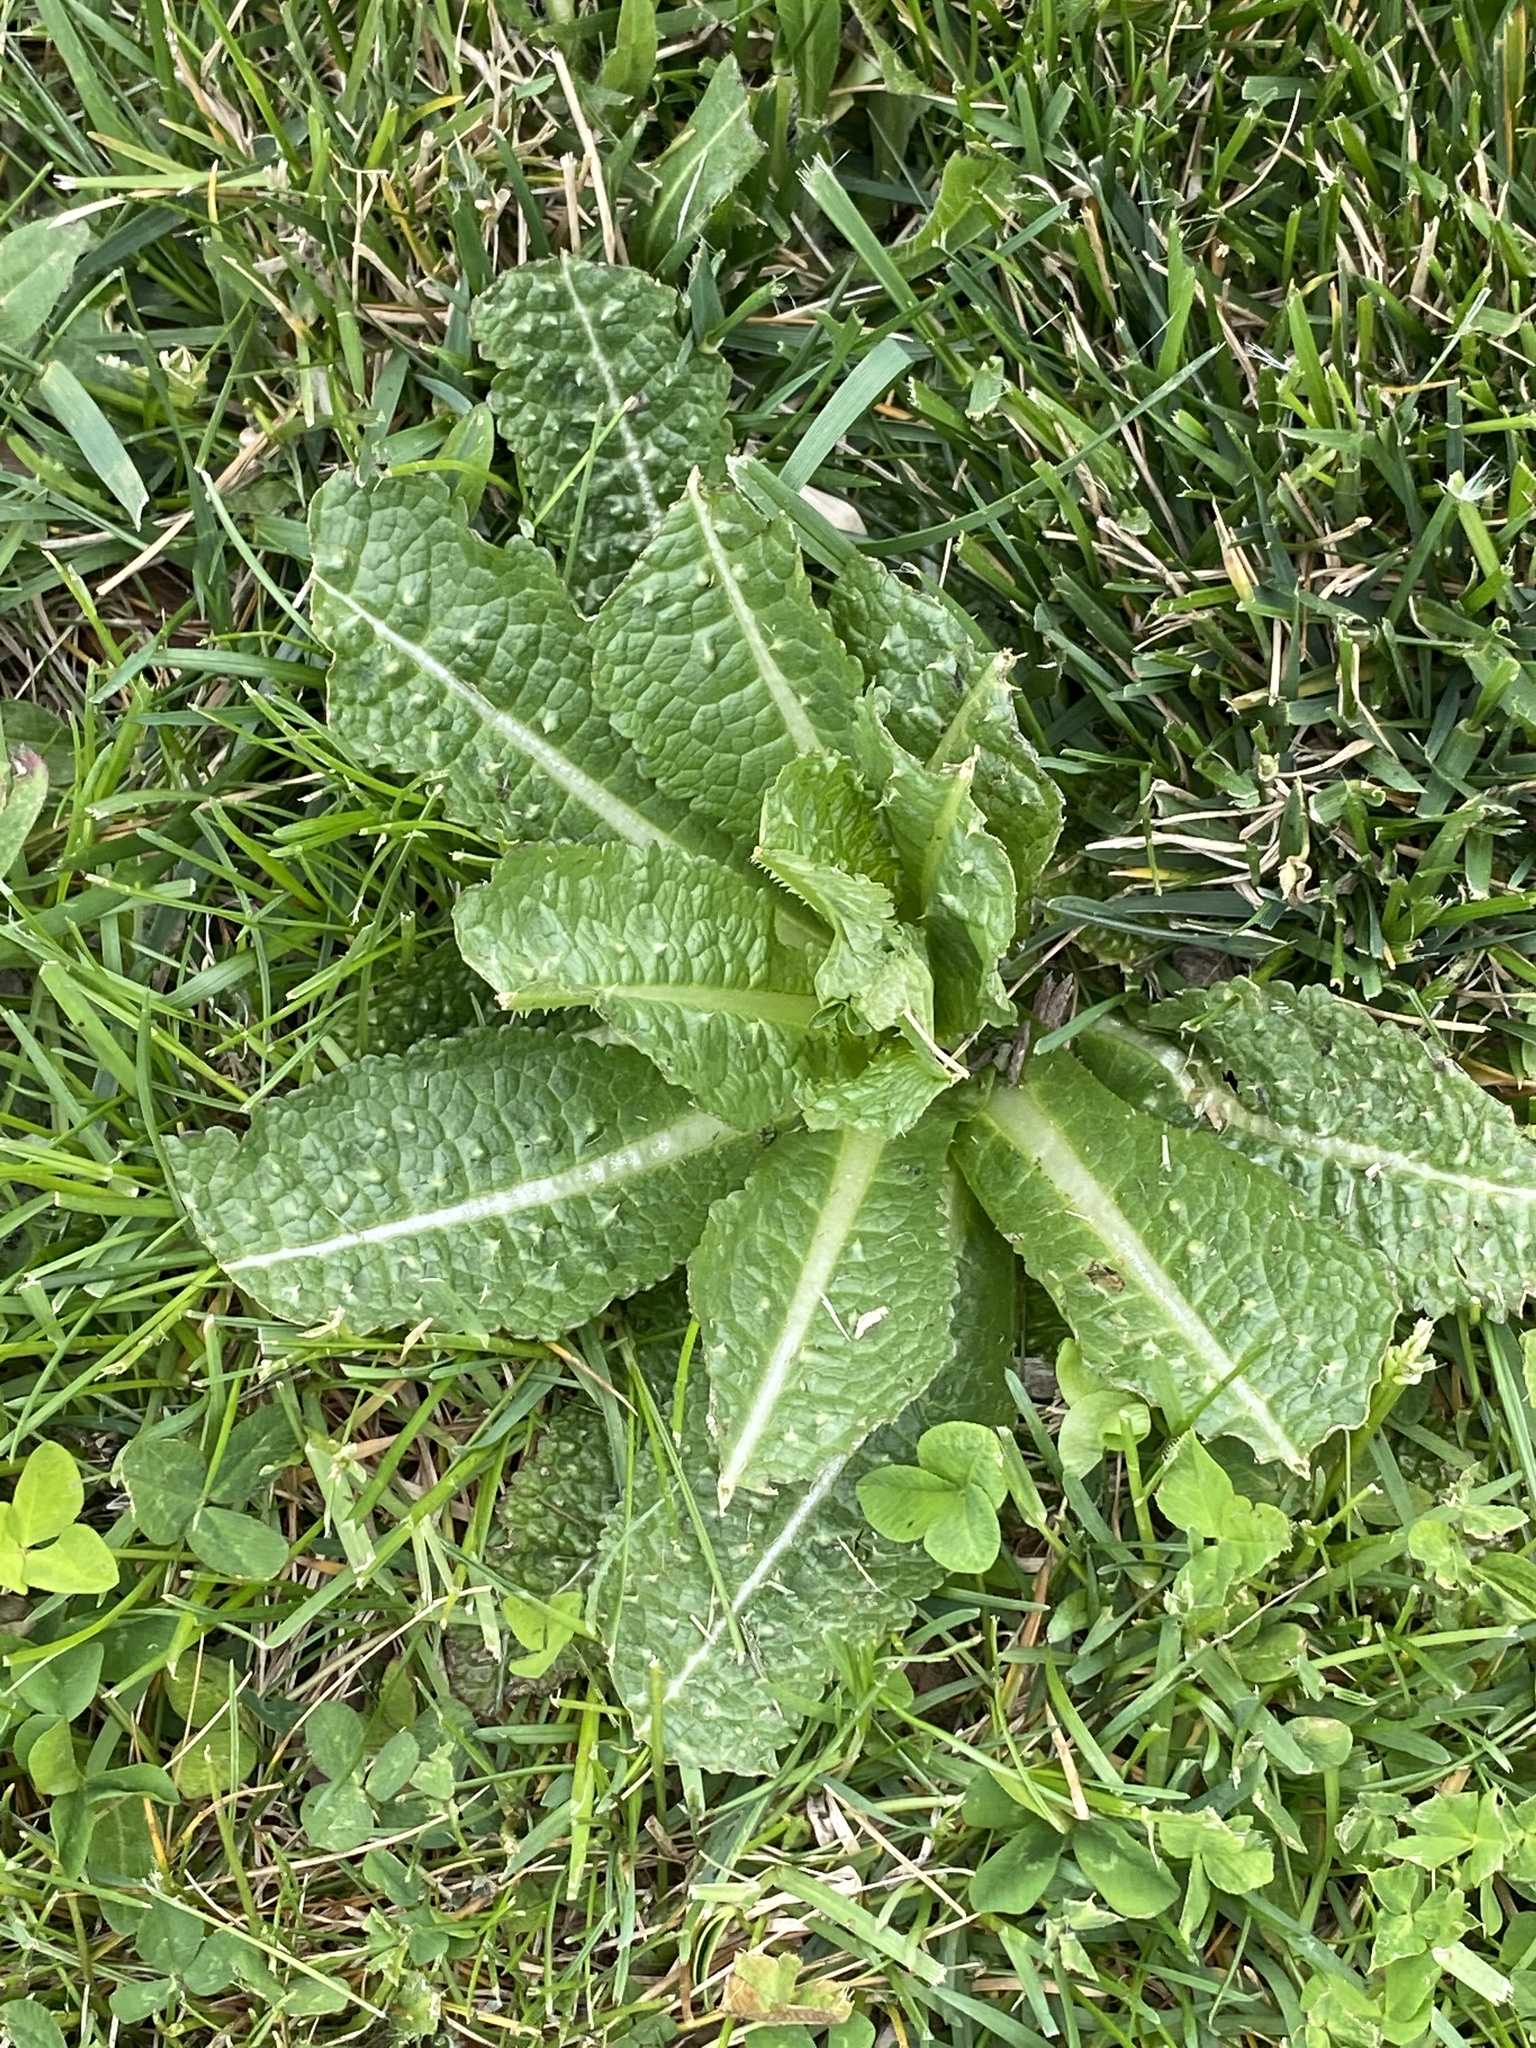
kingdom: Plantae
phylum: Tracheophyta
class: Magnoliopsida
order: Dipsacales
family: Caprifoliaceae
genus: Dipsacus
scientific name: Dipsacus fullonum
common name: Teasel
